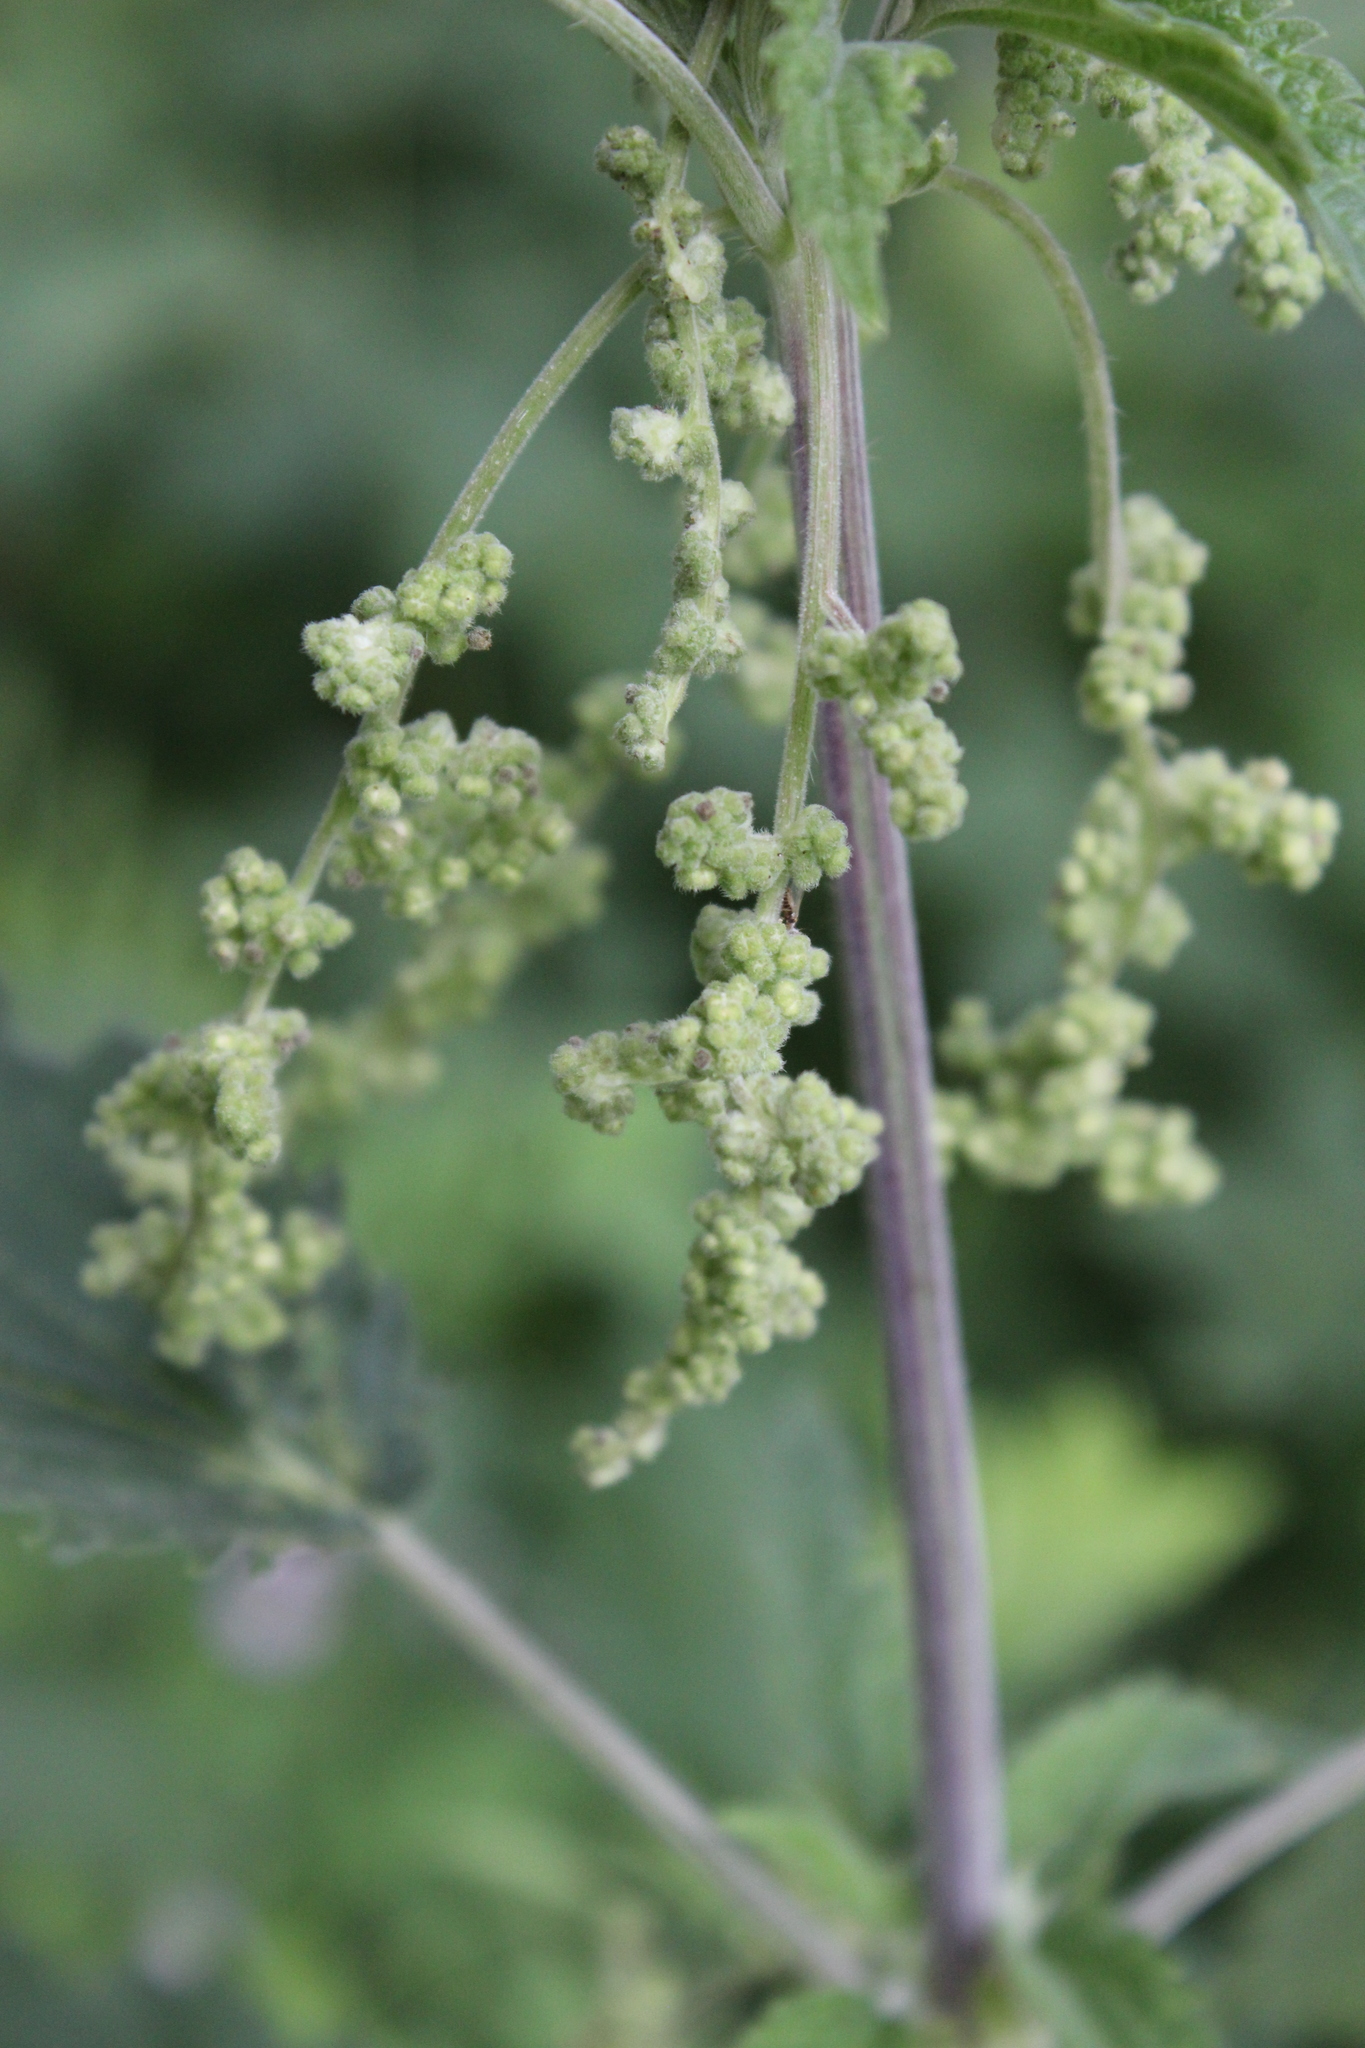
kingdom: Plantae
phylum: Tracheophyta
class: Magnoliopsida
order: Rosales
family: Urticaceae
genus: Urtica
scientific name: Urtica dioica
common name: Common nettle
